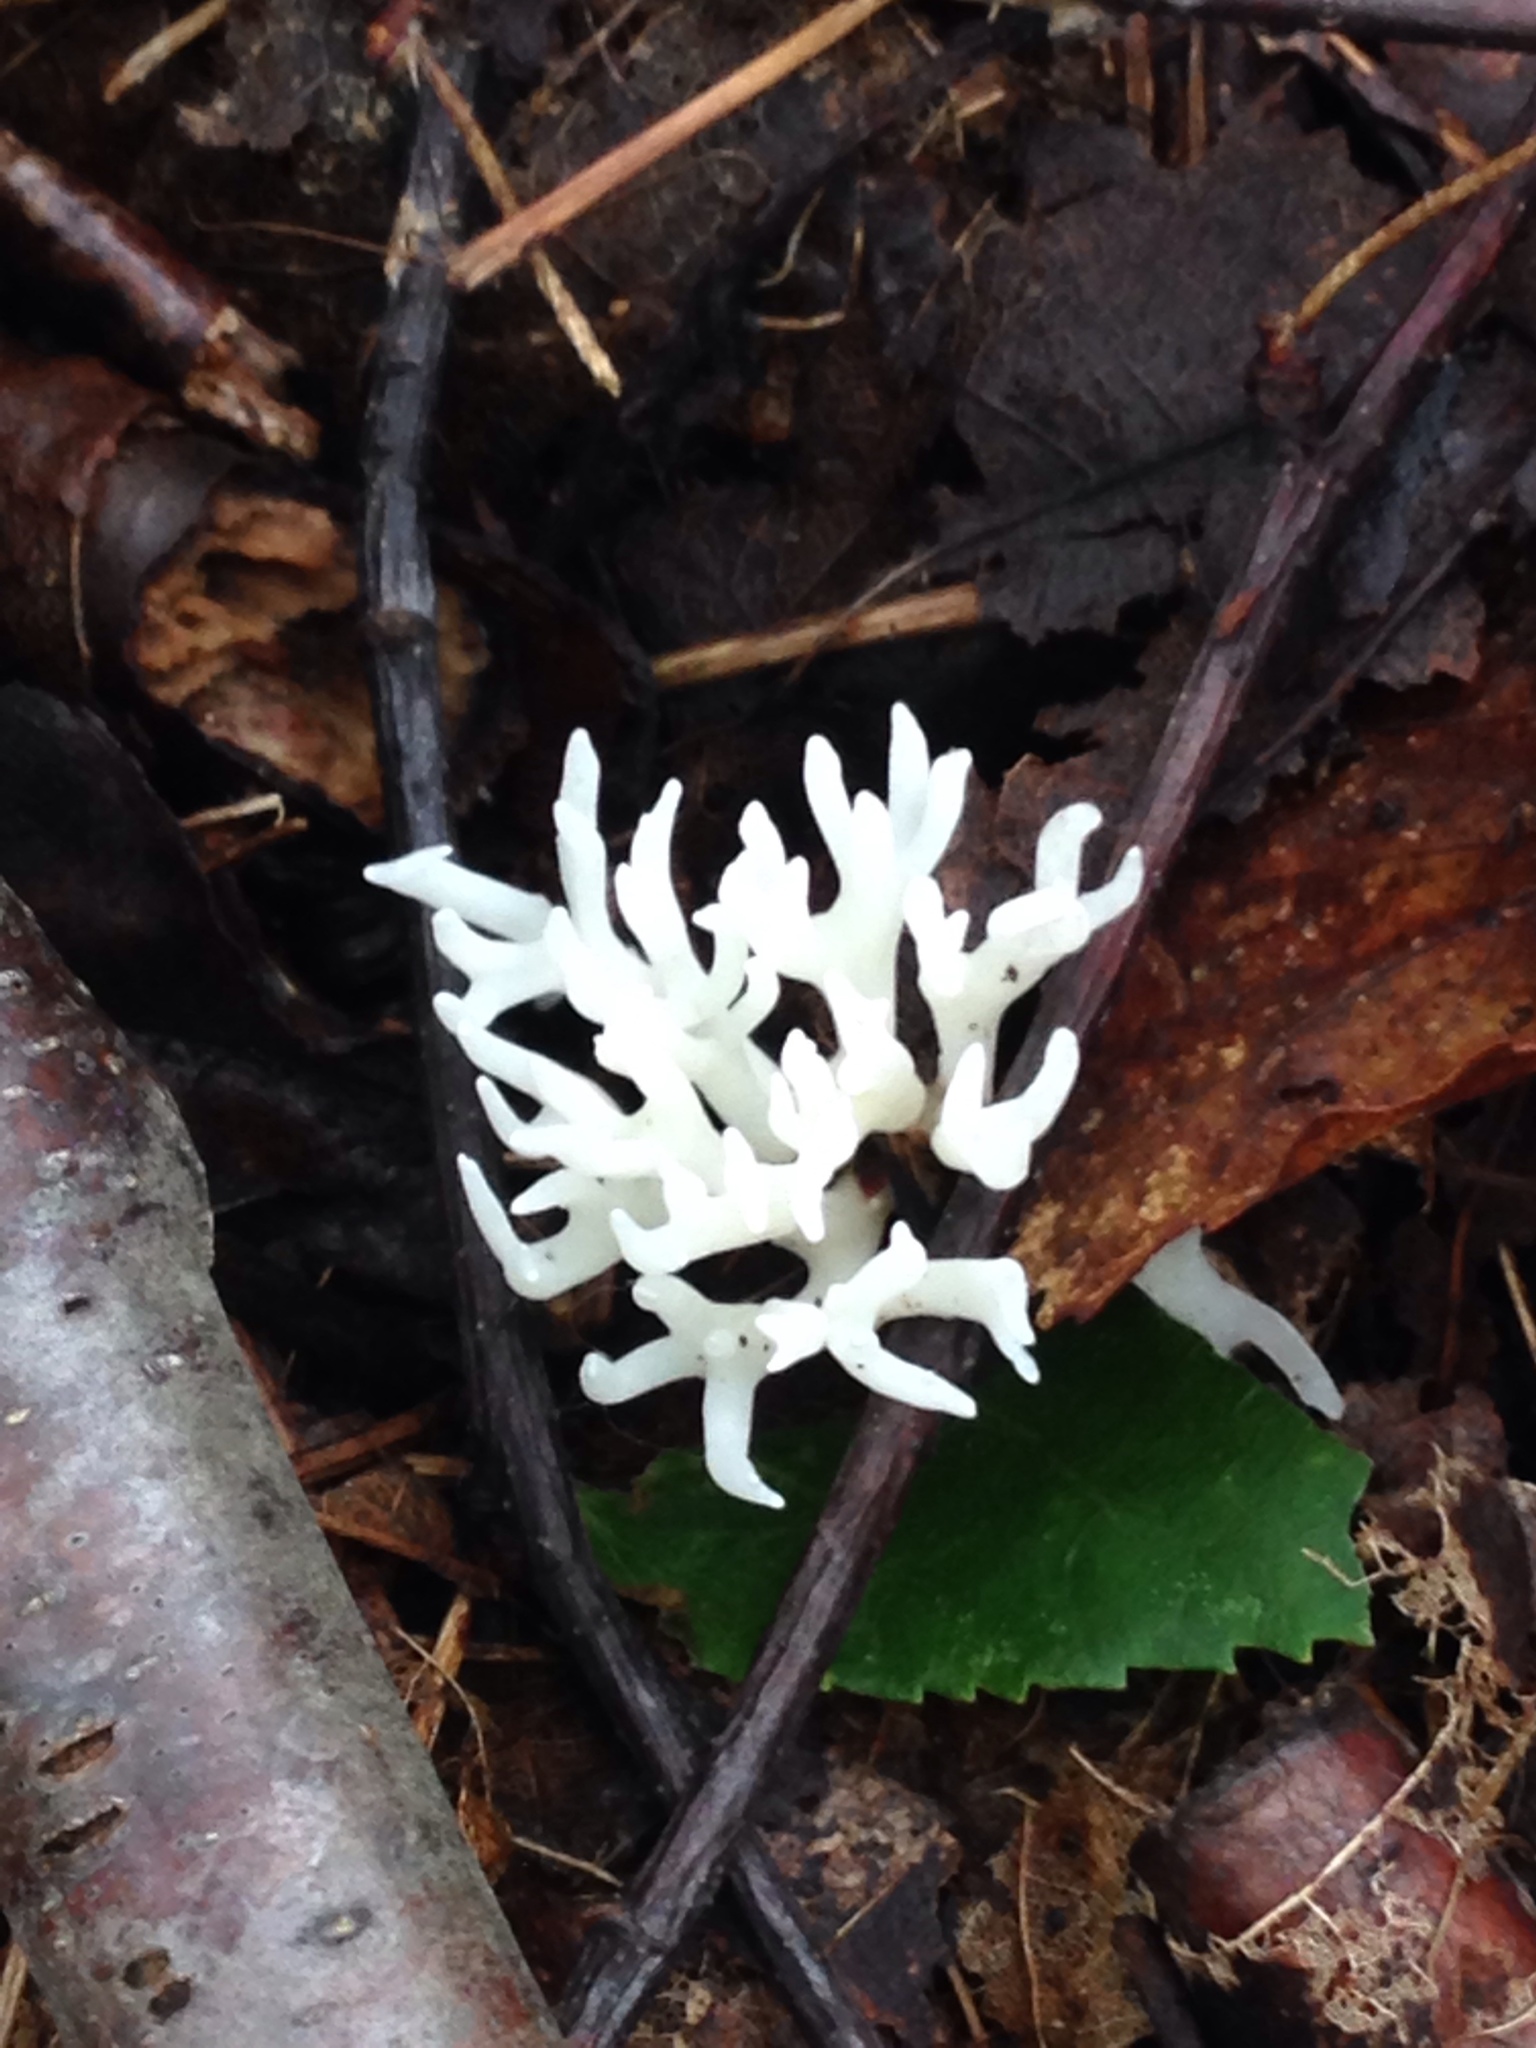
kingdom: Fungi
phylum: Basidiomycota
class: Agaricomycetes
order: Agaricales
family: Clavariaceae
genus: Ramariopsis
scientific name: Ramariopsis kunzei
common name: Ivory coral
